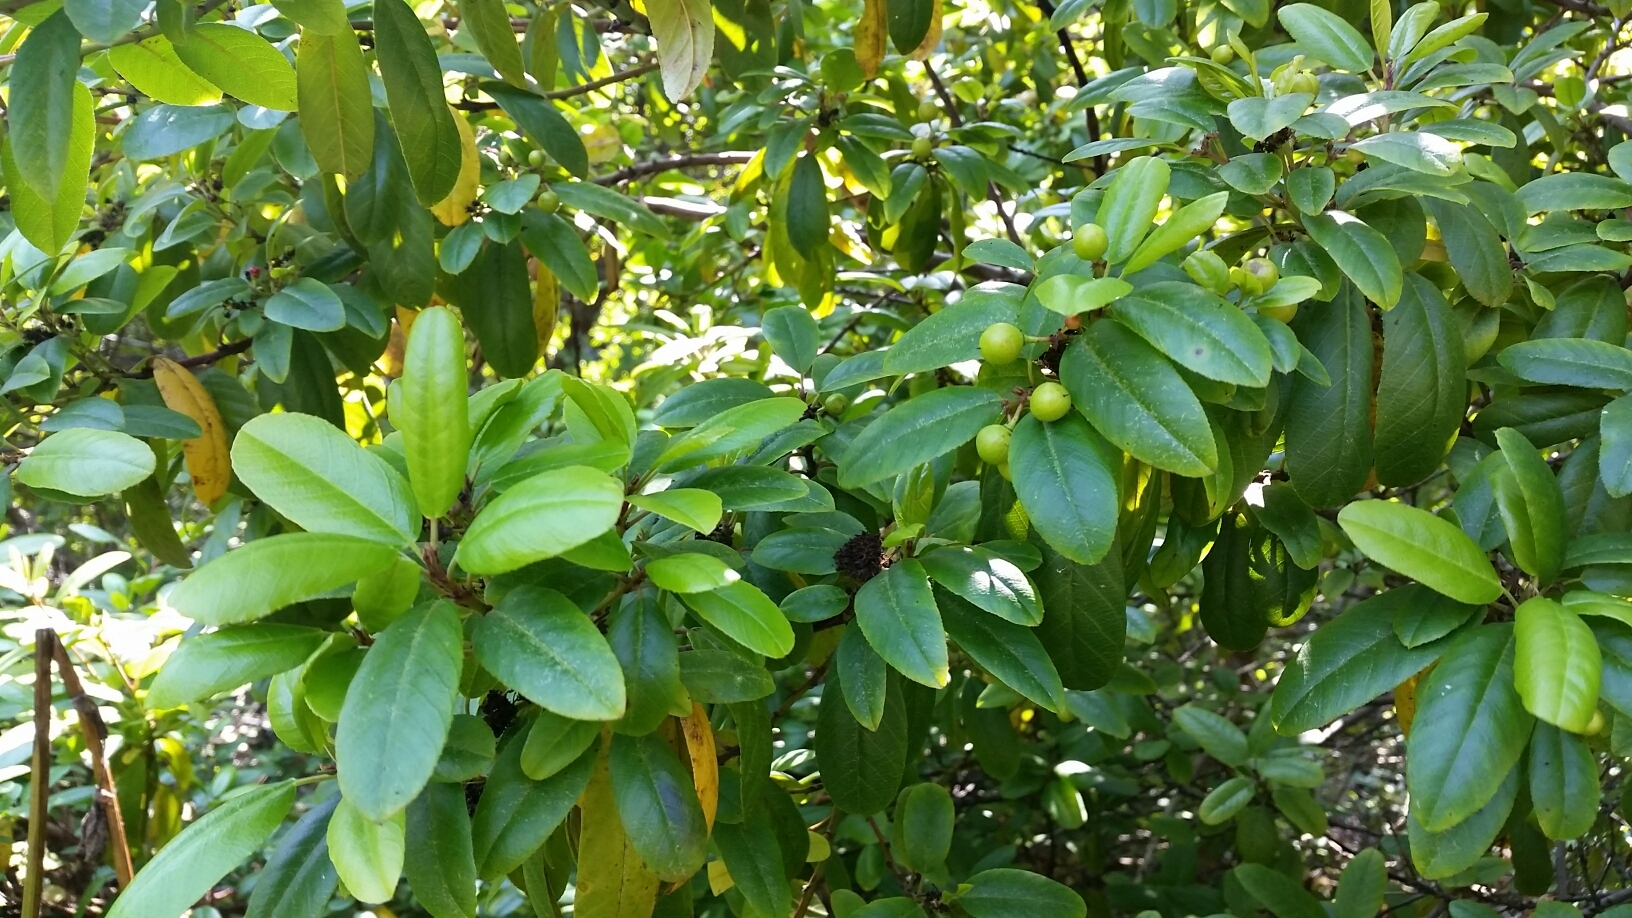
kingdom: Plantae
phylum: Tracheophyta
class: Magnoliopsida
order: Rosales
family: Rhamnaceae
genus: Frangula
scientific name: Frangula californica
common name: California buckthorn
